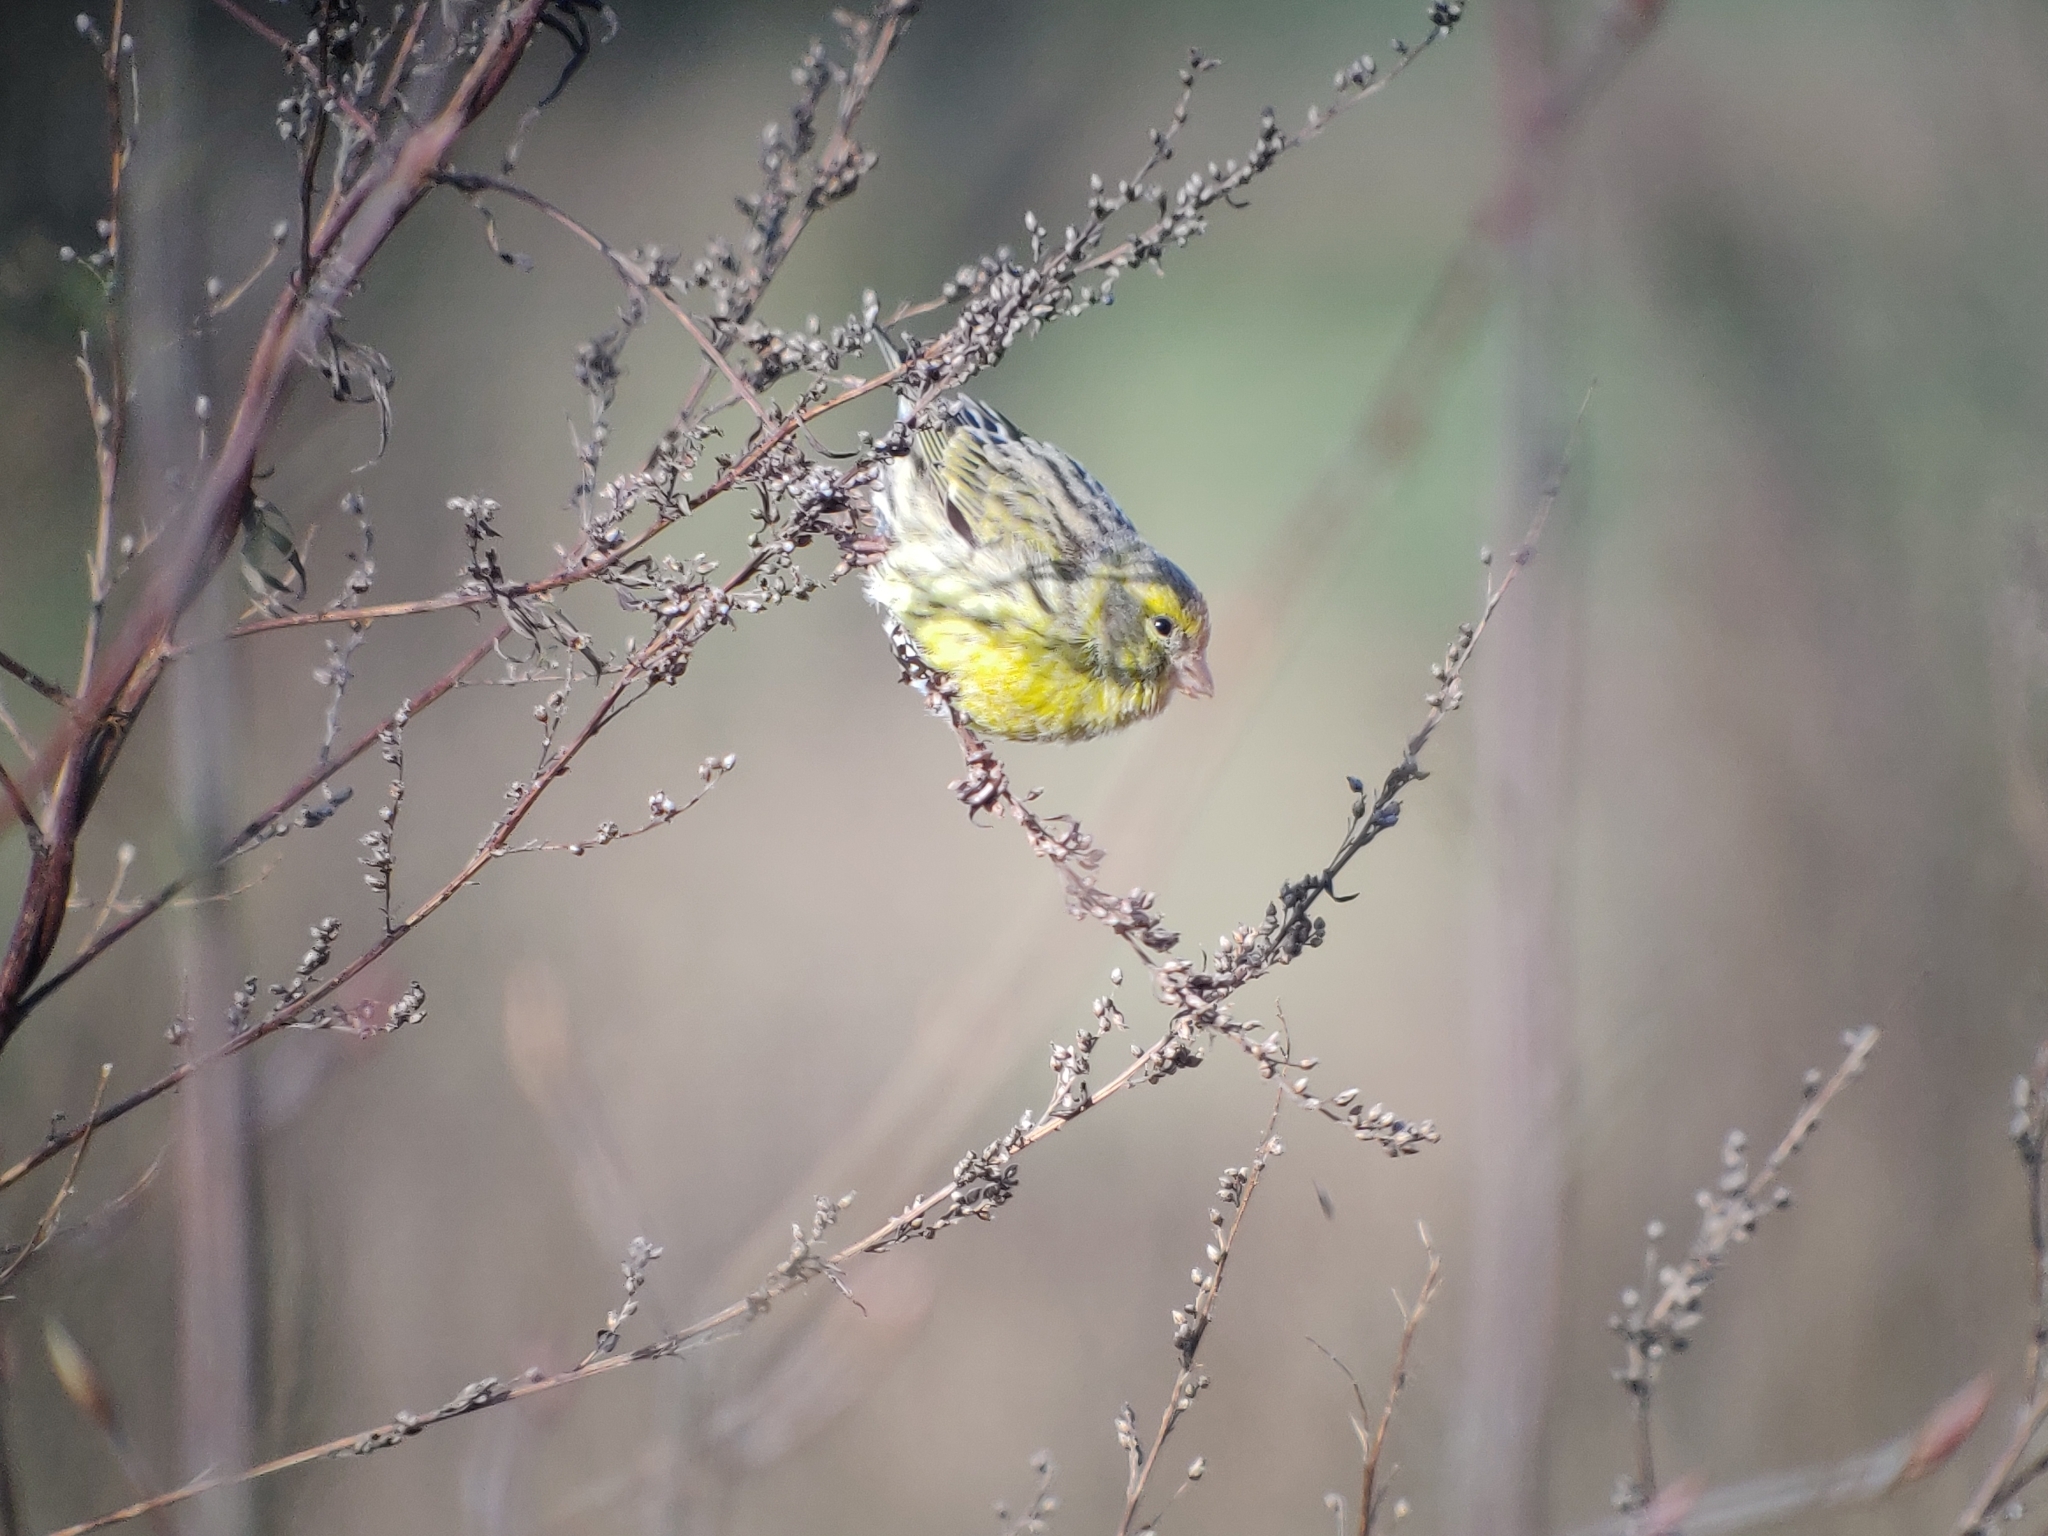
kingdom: Animalia
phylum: Chordata
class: Aves
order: Passeriformes
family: Fringillidae
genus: Serinus
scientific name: Serinus serinus
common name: European serin
